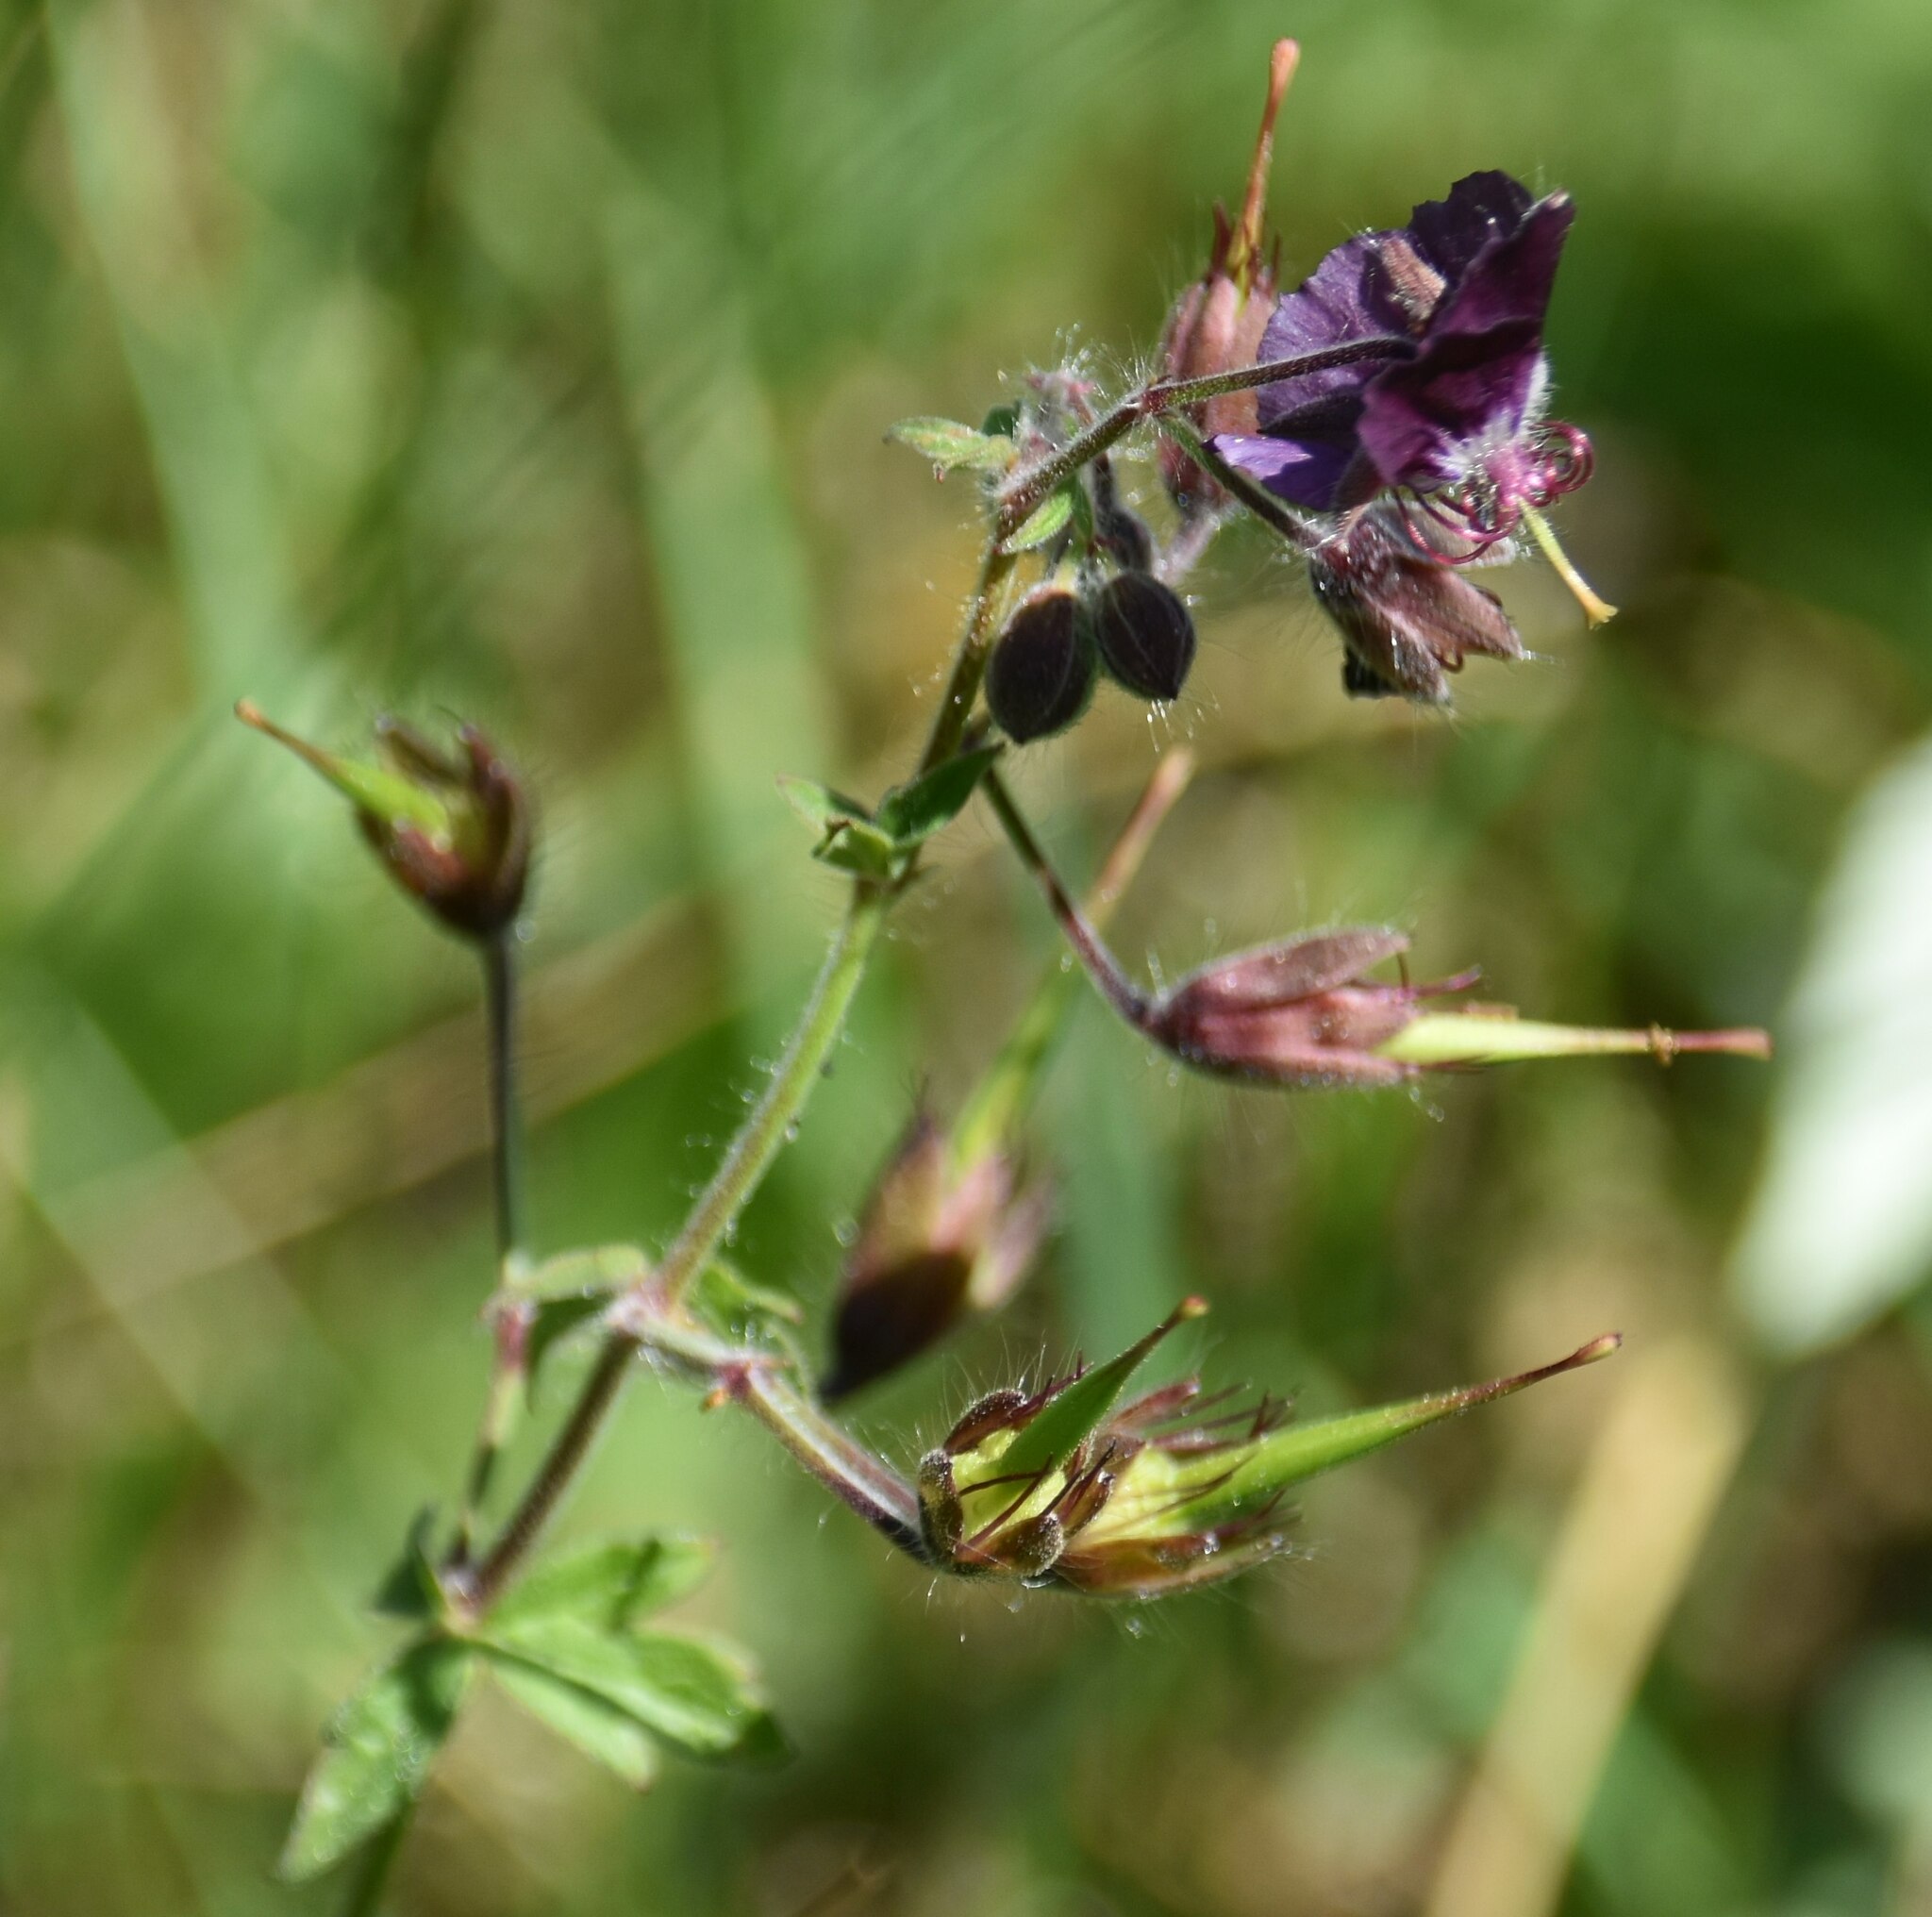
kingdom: Plantae
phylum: Tracheophyta
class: Magnoliopsida
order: Geraniales
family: Geraniaceae
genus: Geranium
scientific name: Geranium phaeum
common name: Dusky crane's-bill
